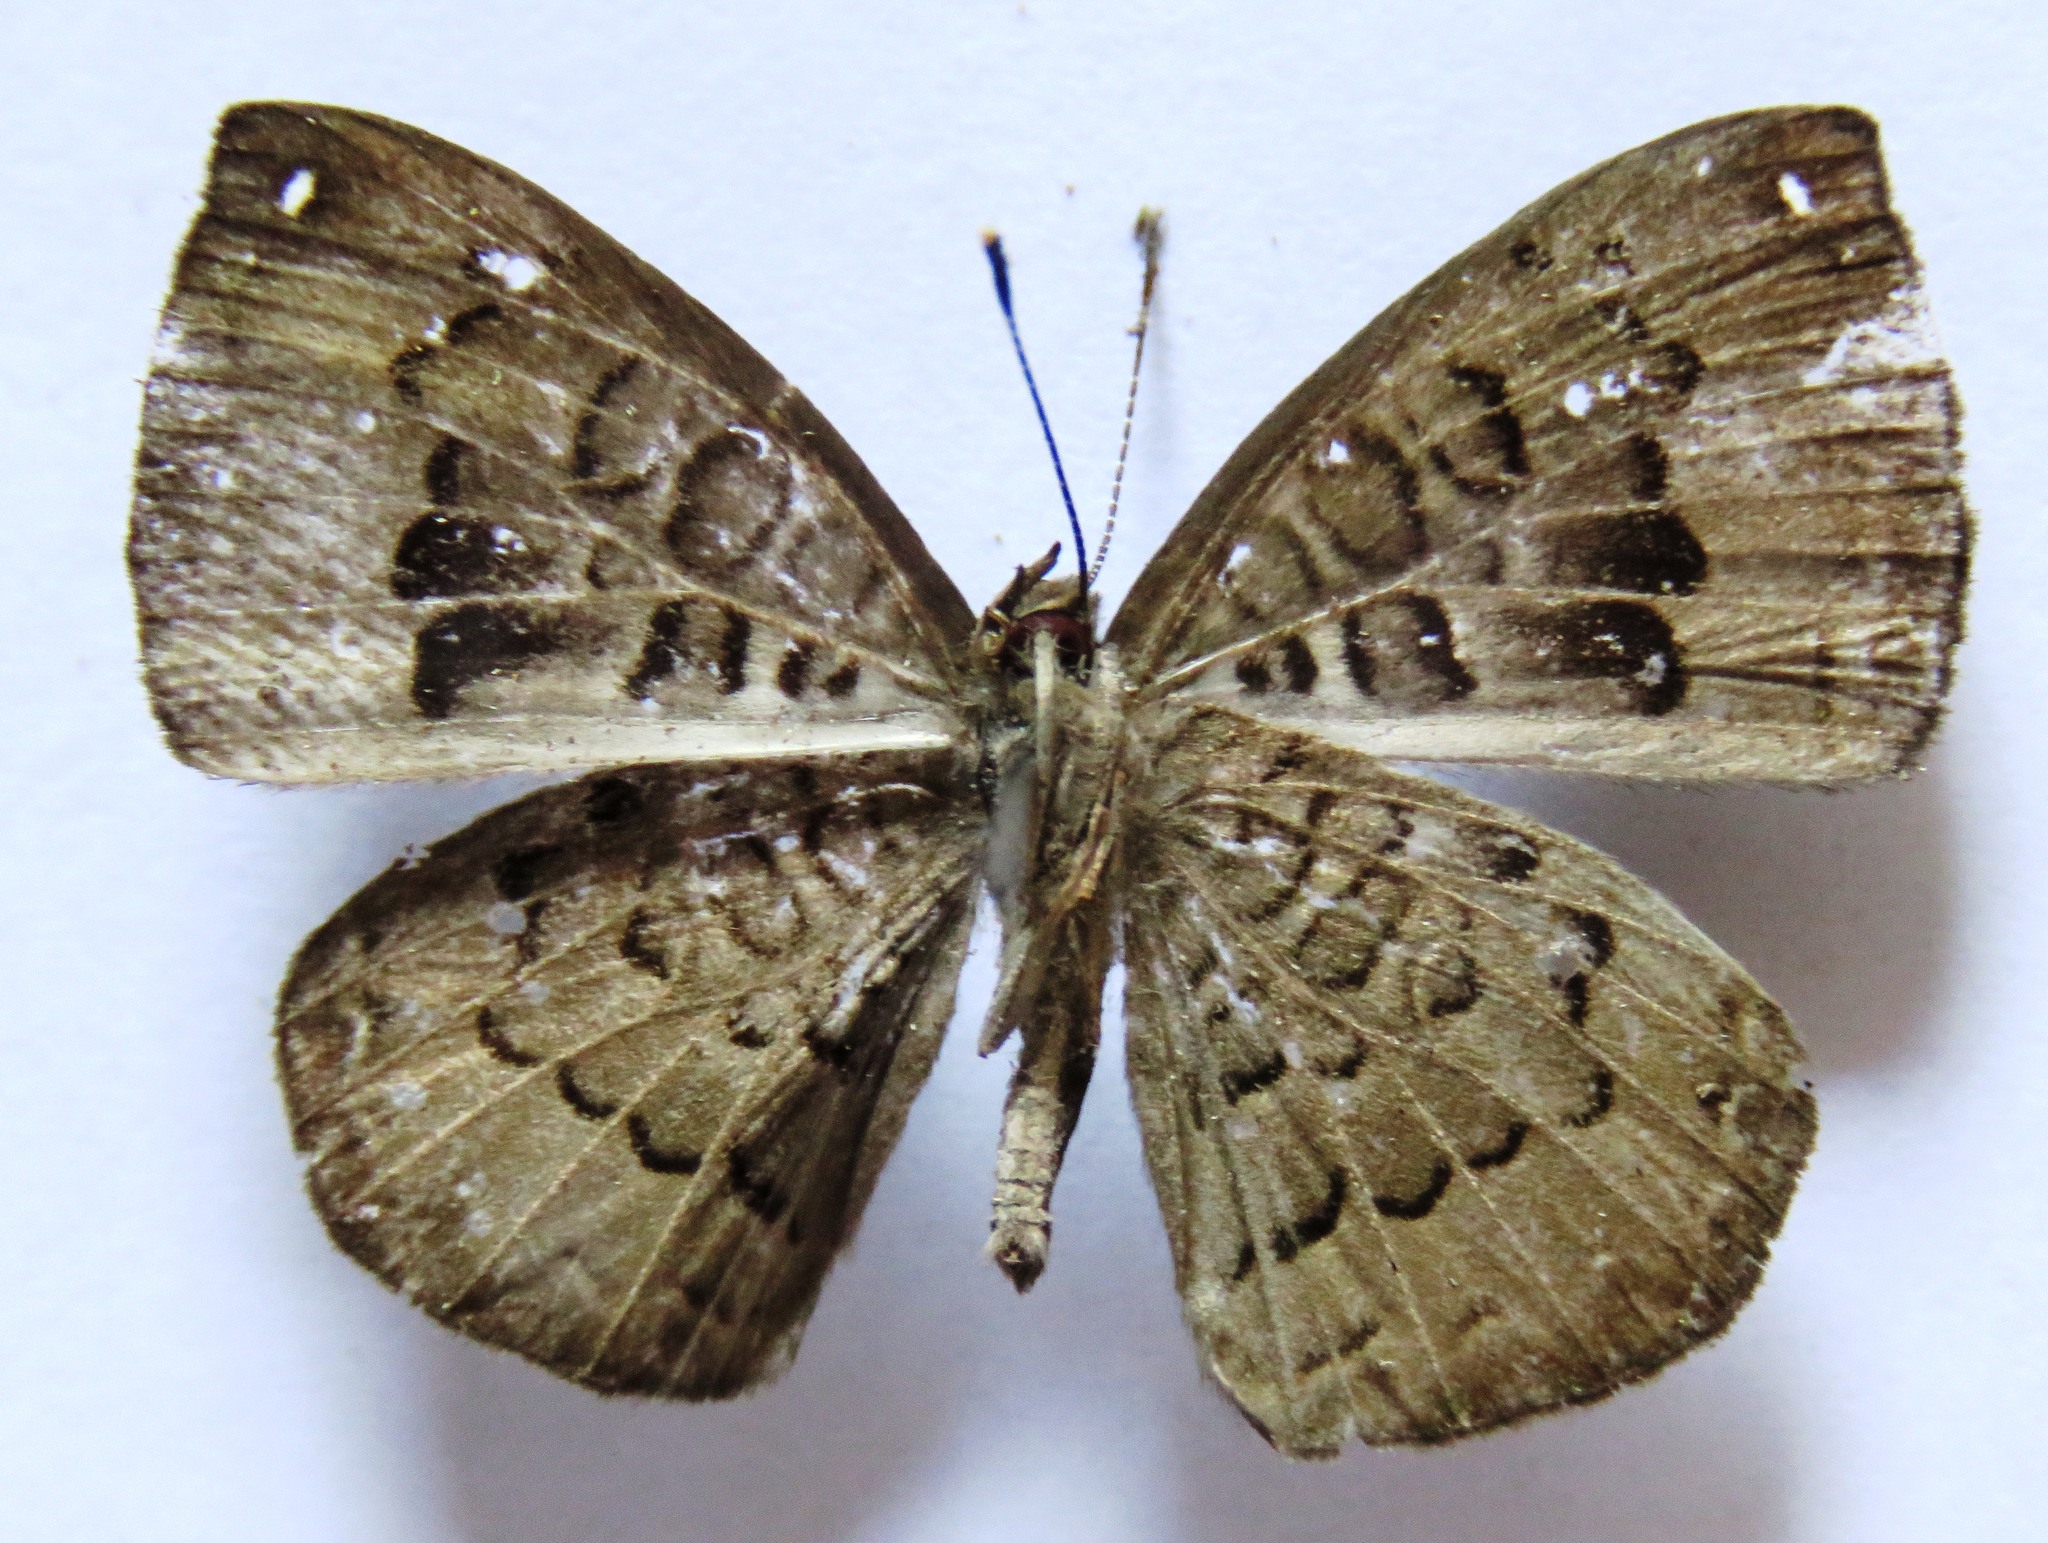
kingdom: Animalia
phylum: Arthropoda
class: Insecta
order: Lepidoptera
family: Riodinidae
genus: Voltinia
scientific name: Voltinia umbra
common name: Quilted metalmark
